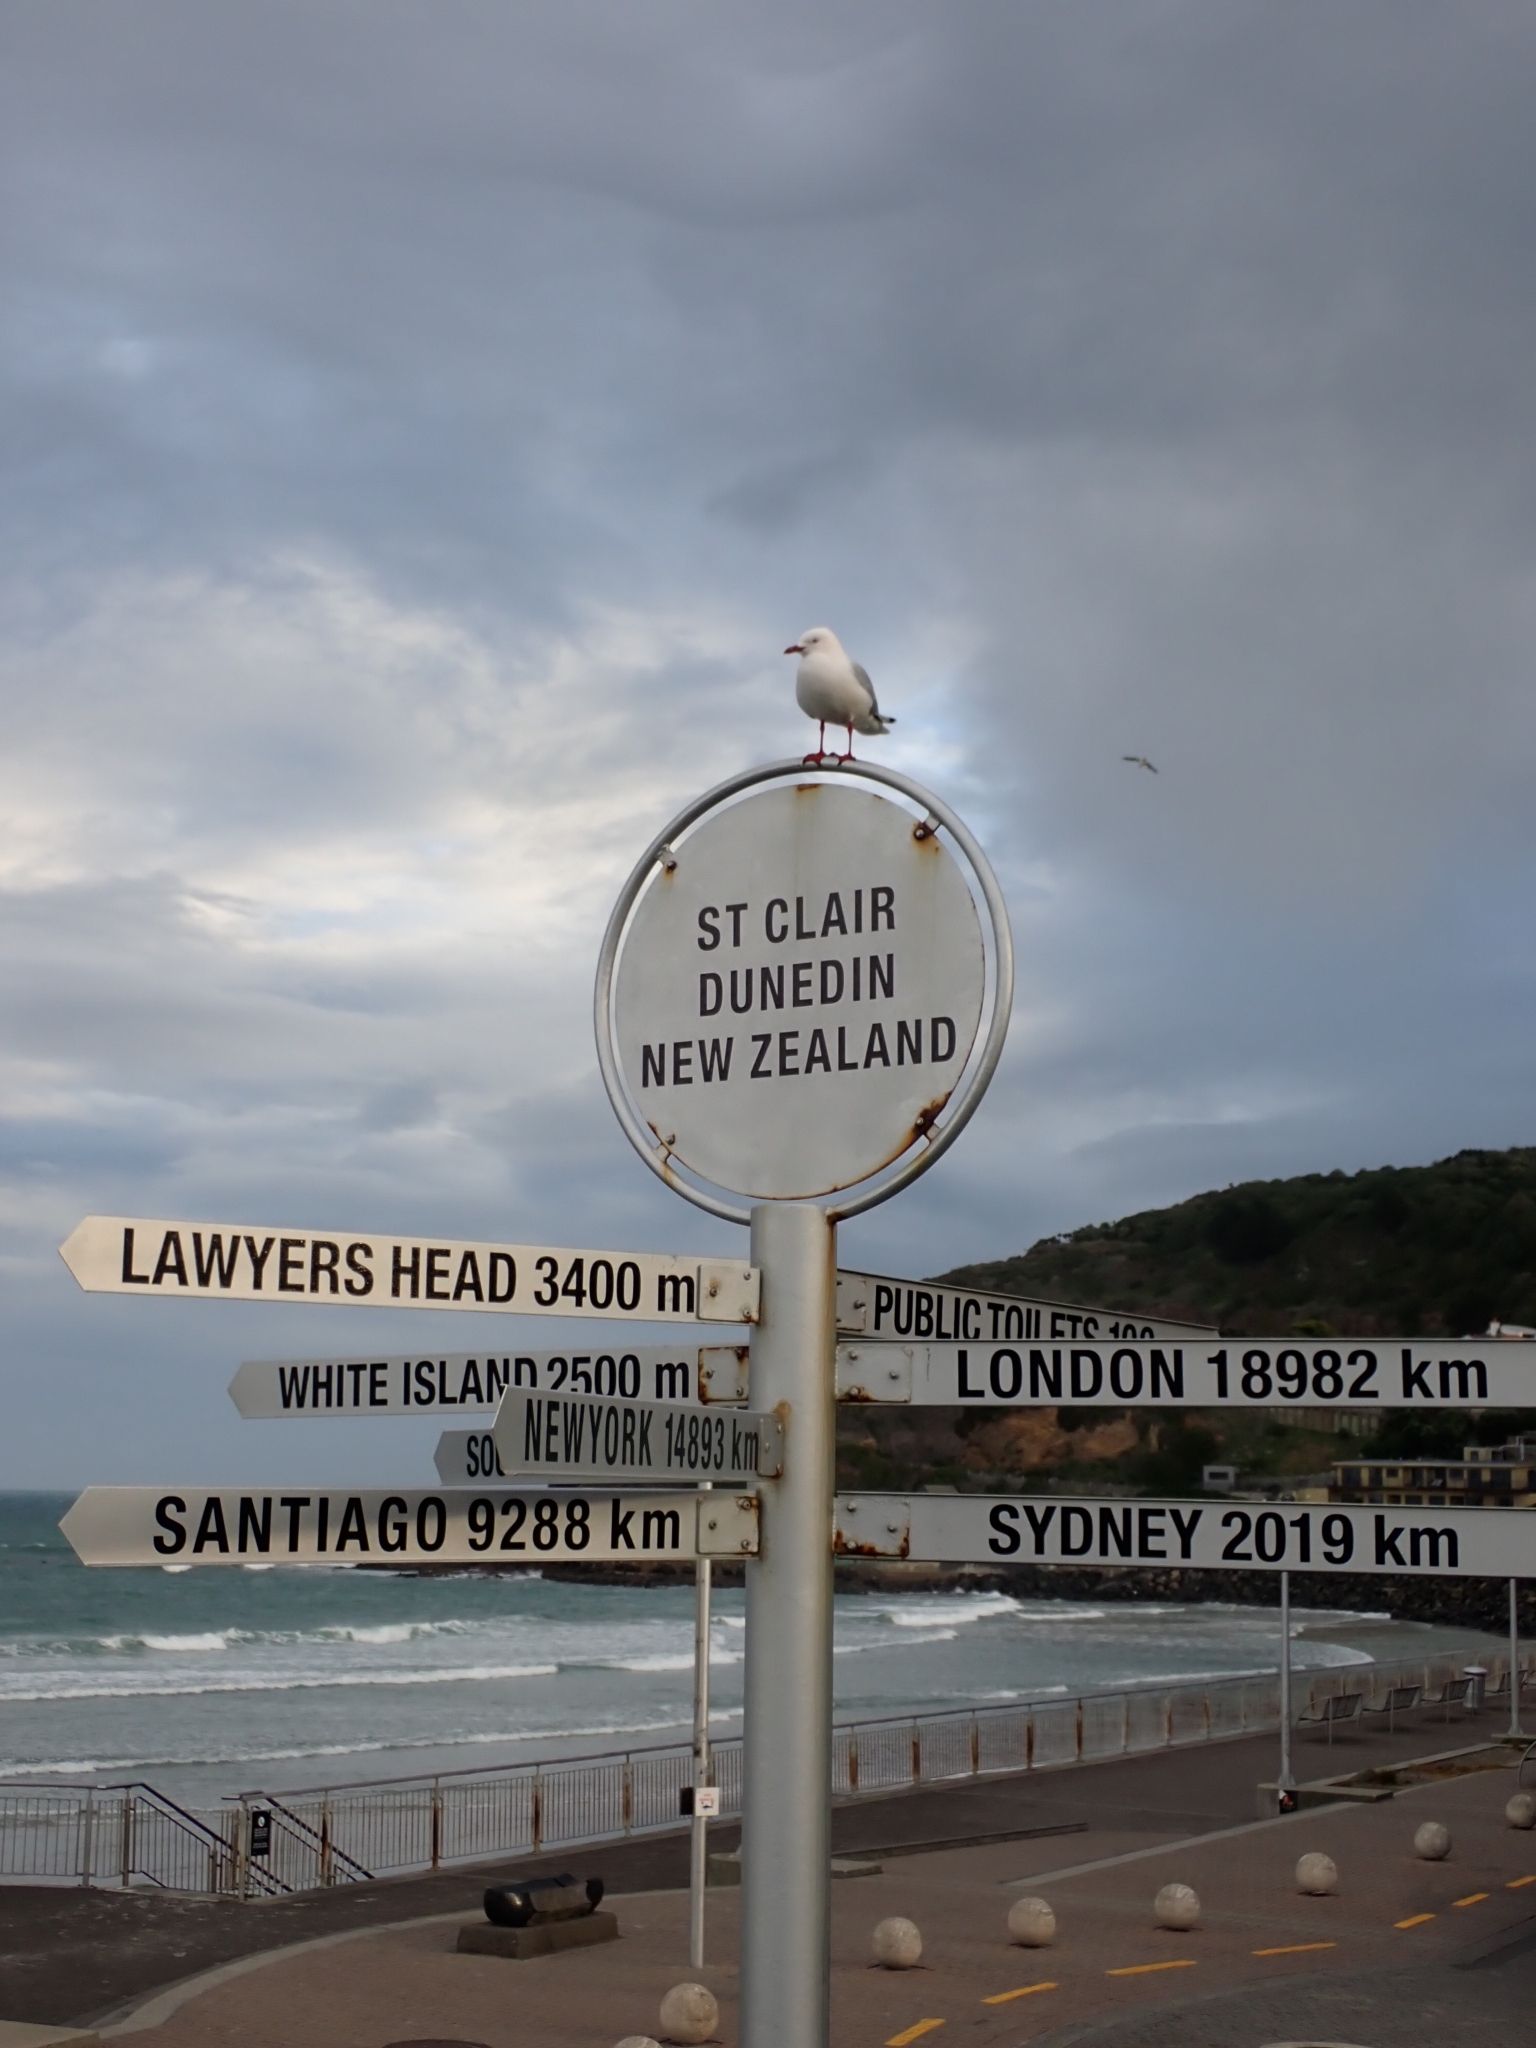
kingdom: Animalia
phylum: Chordata
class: Aves
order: Charadriiformes
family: Laridae
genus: Chroicocephalus
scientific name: Chroicocephalus novaehollandiae
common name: Silver gull
